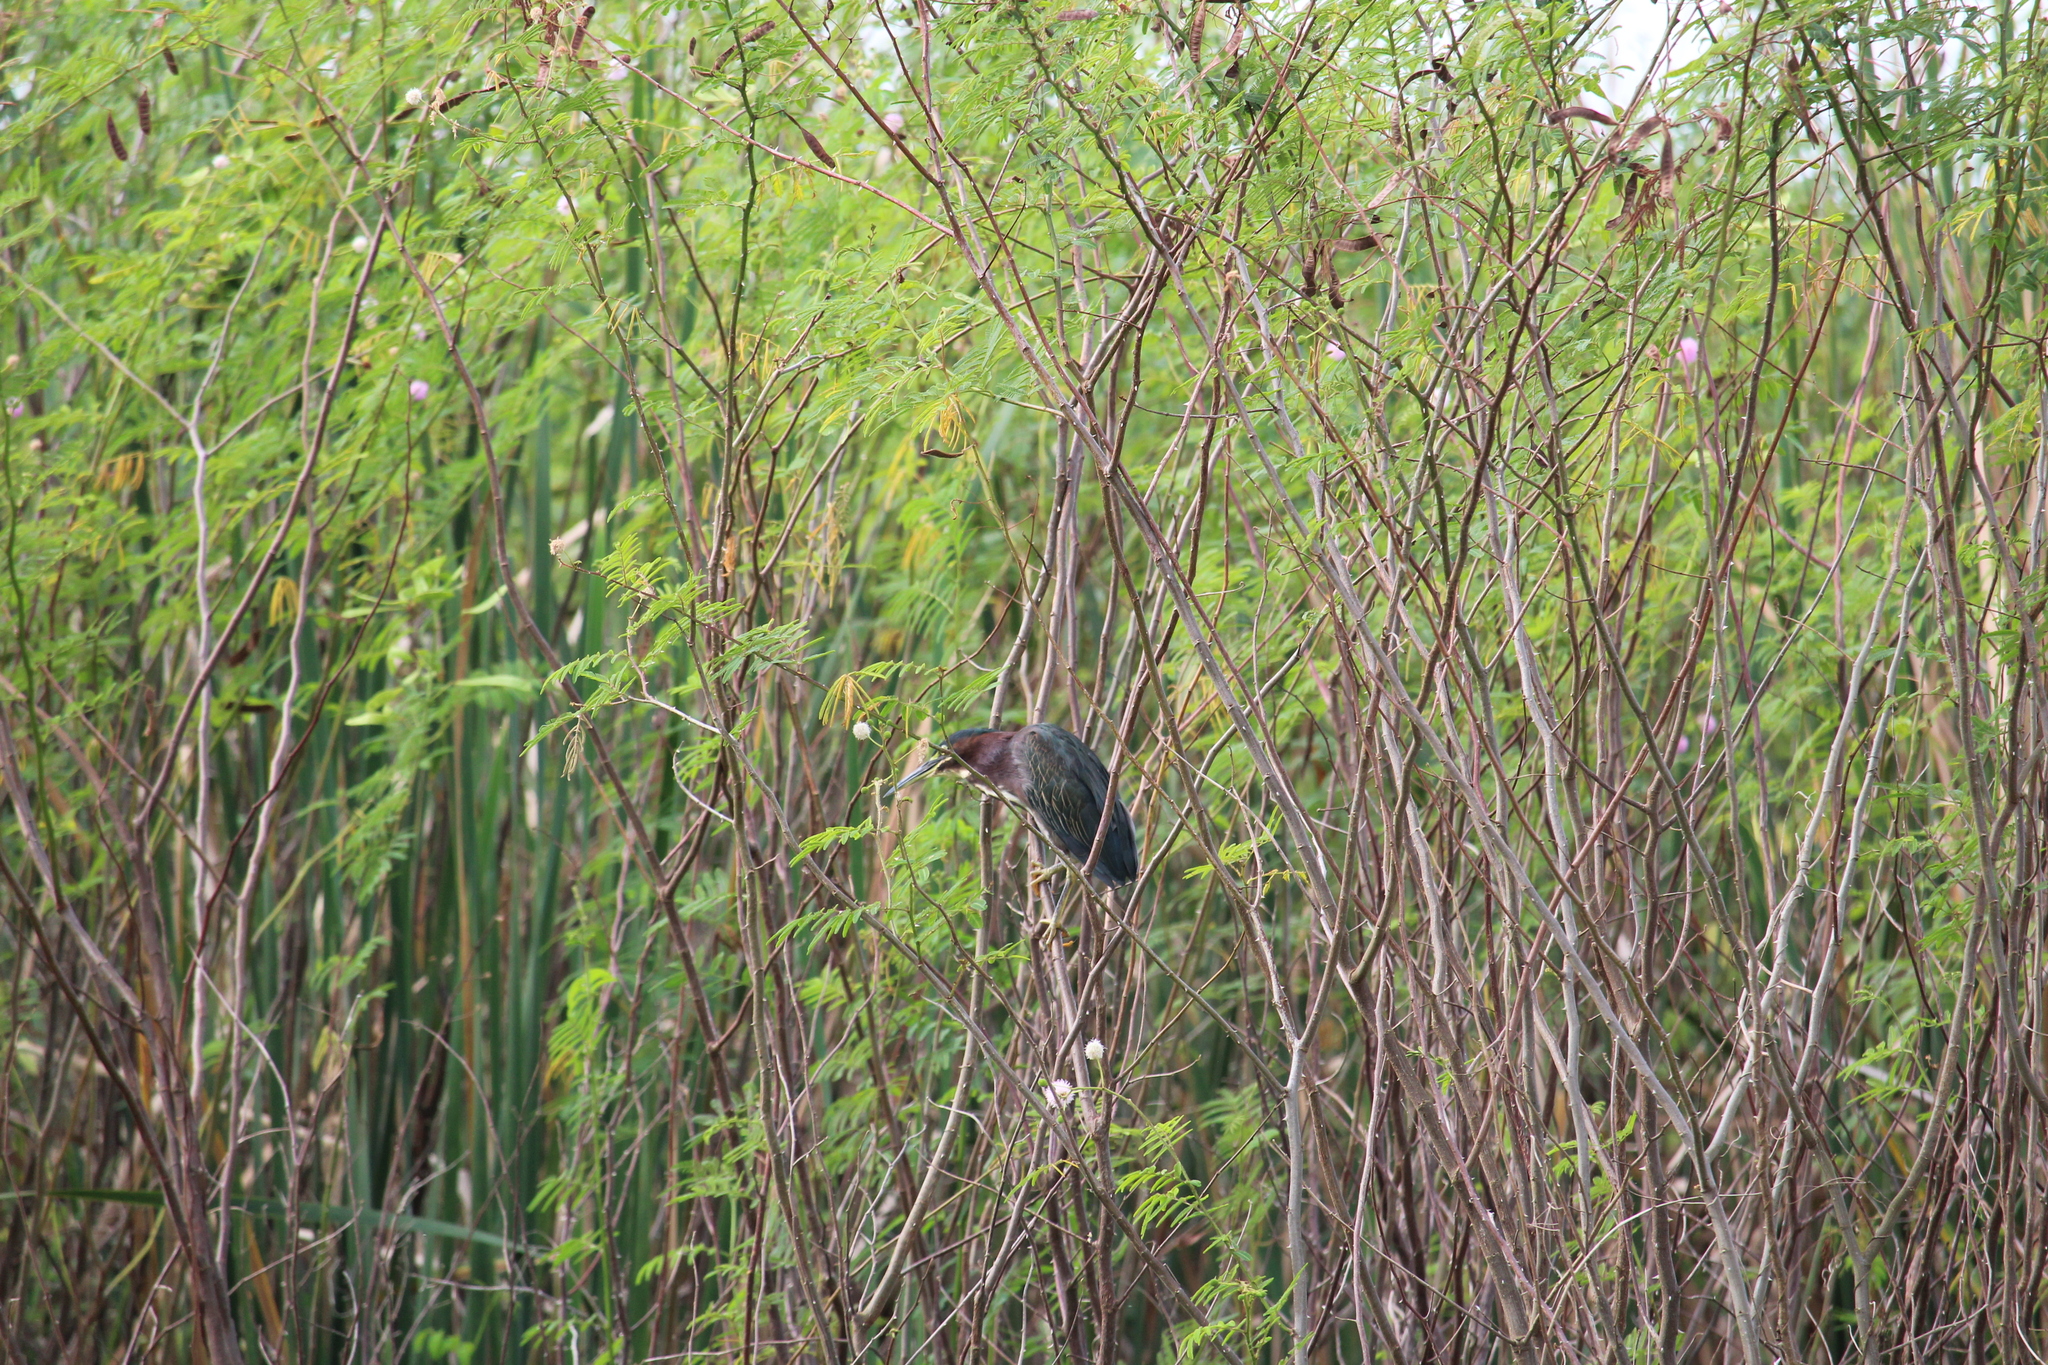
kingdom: Animalia
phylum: Chordata
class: Aves
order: Pelecaniformes
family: Ardeidae
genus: Butorides
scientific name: Butorides virescens
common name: Green heron
